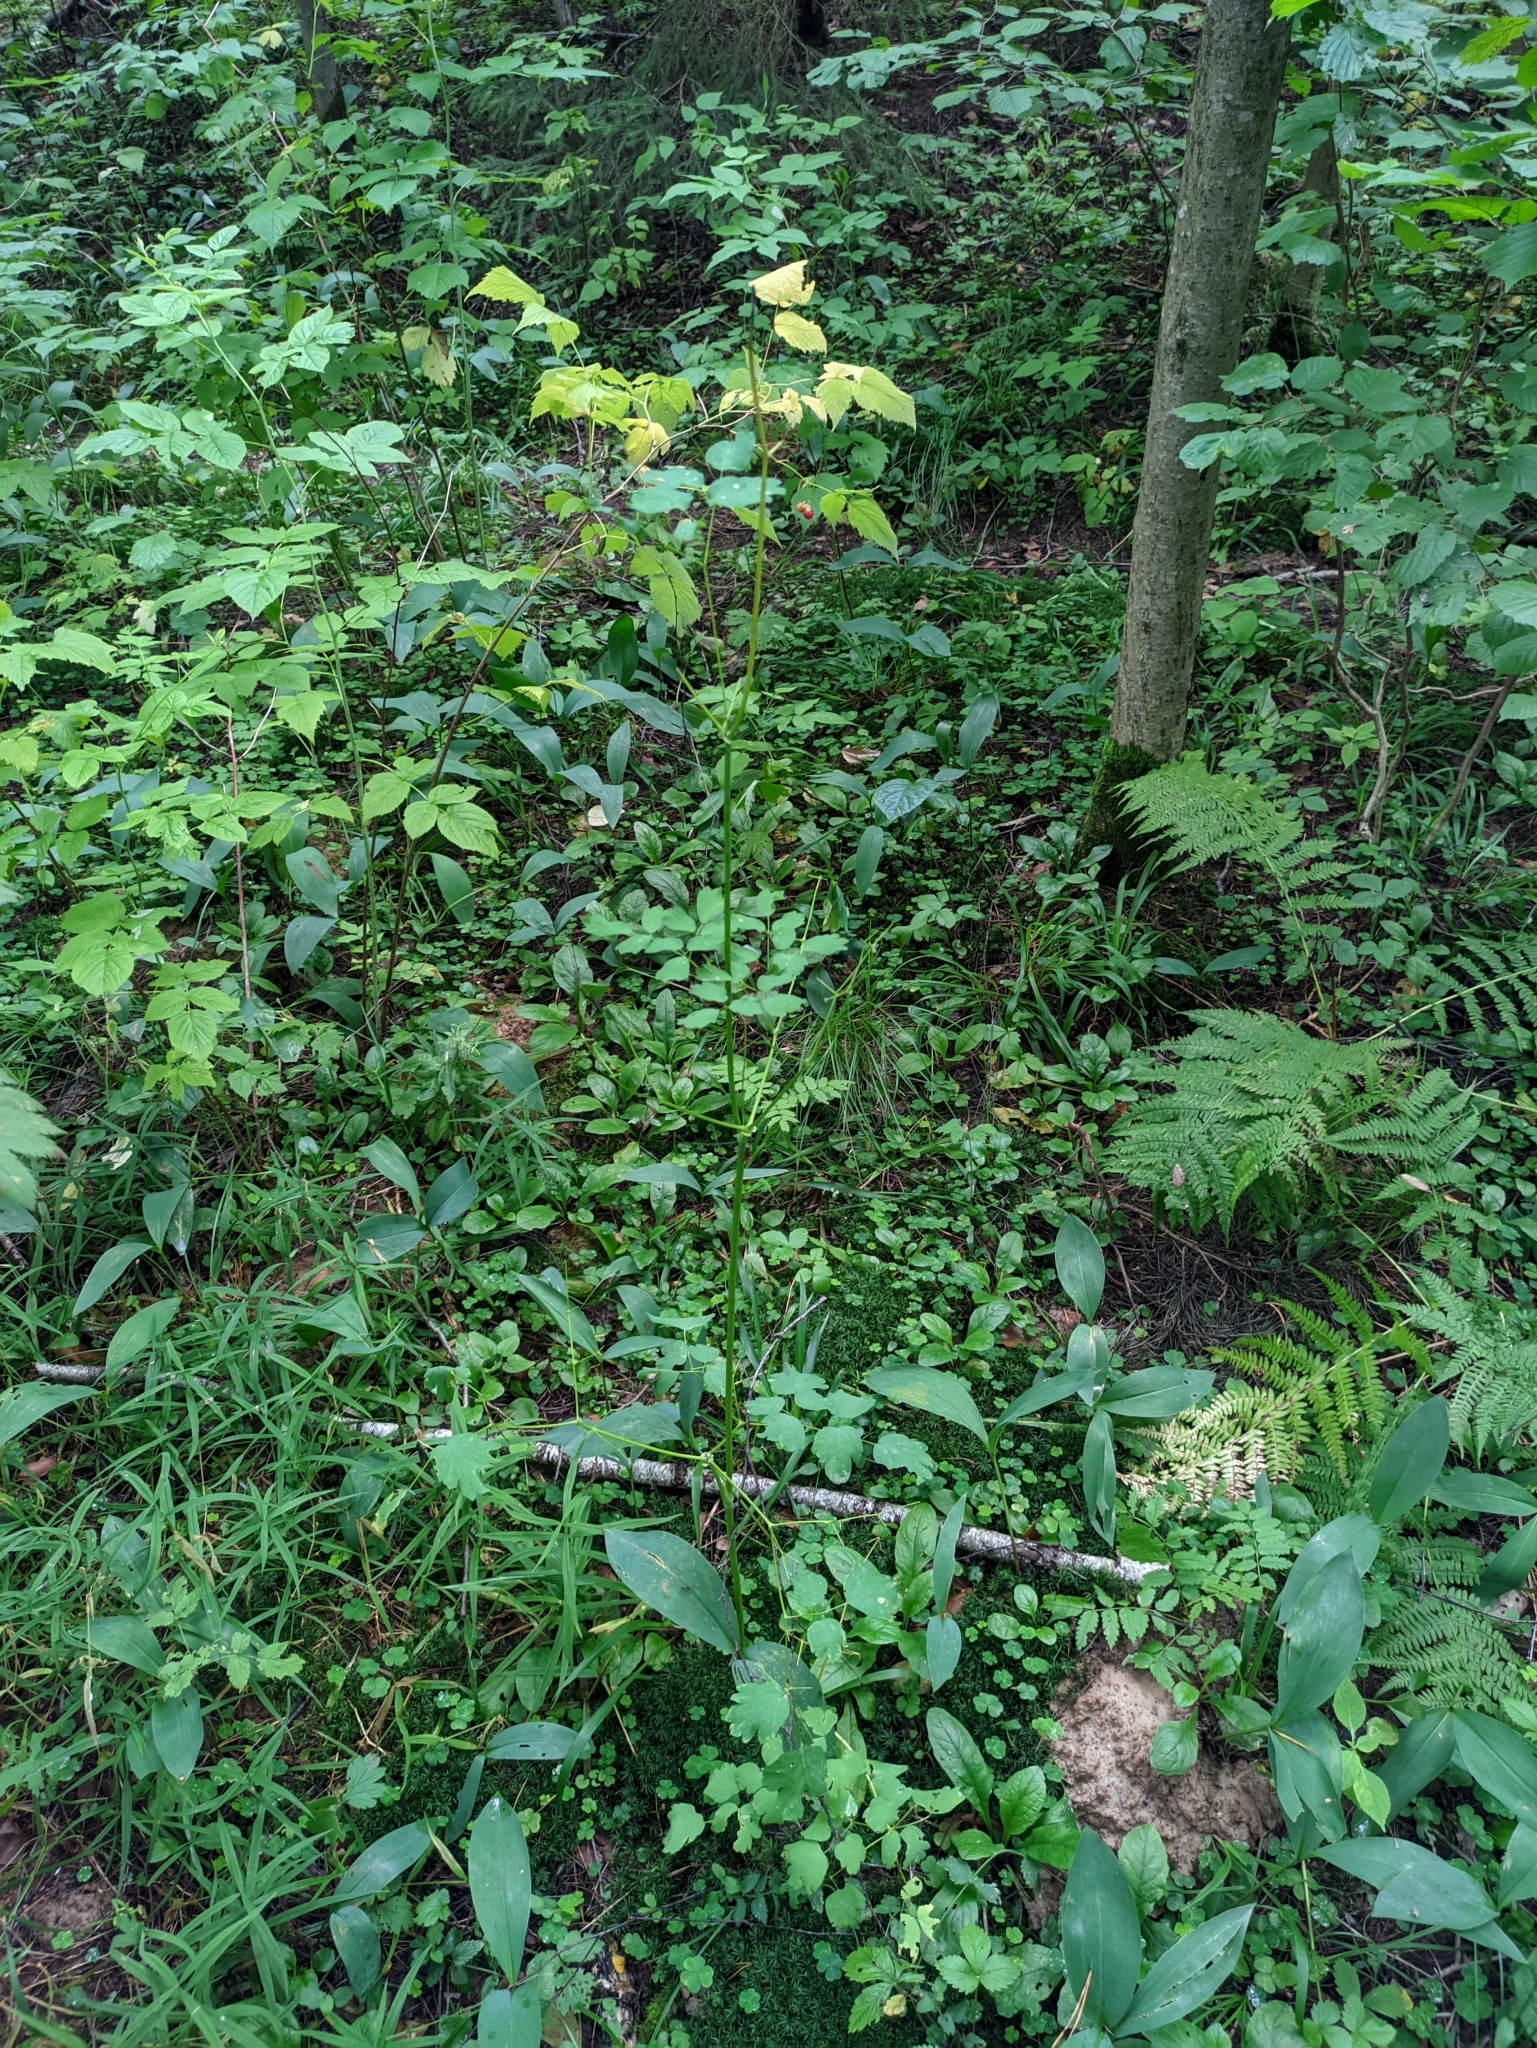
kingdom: Plantae
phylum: Tracheophyta
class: Magnoliopsida
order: Ranunculales
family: Ranunculaceae
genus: Thalictrum
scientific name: Thalictrum aquilegiifolium
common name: French meadow-rue
